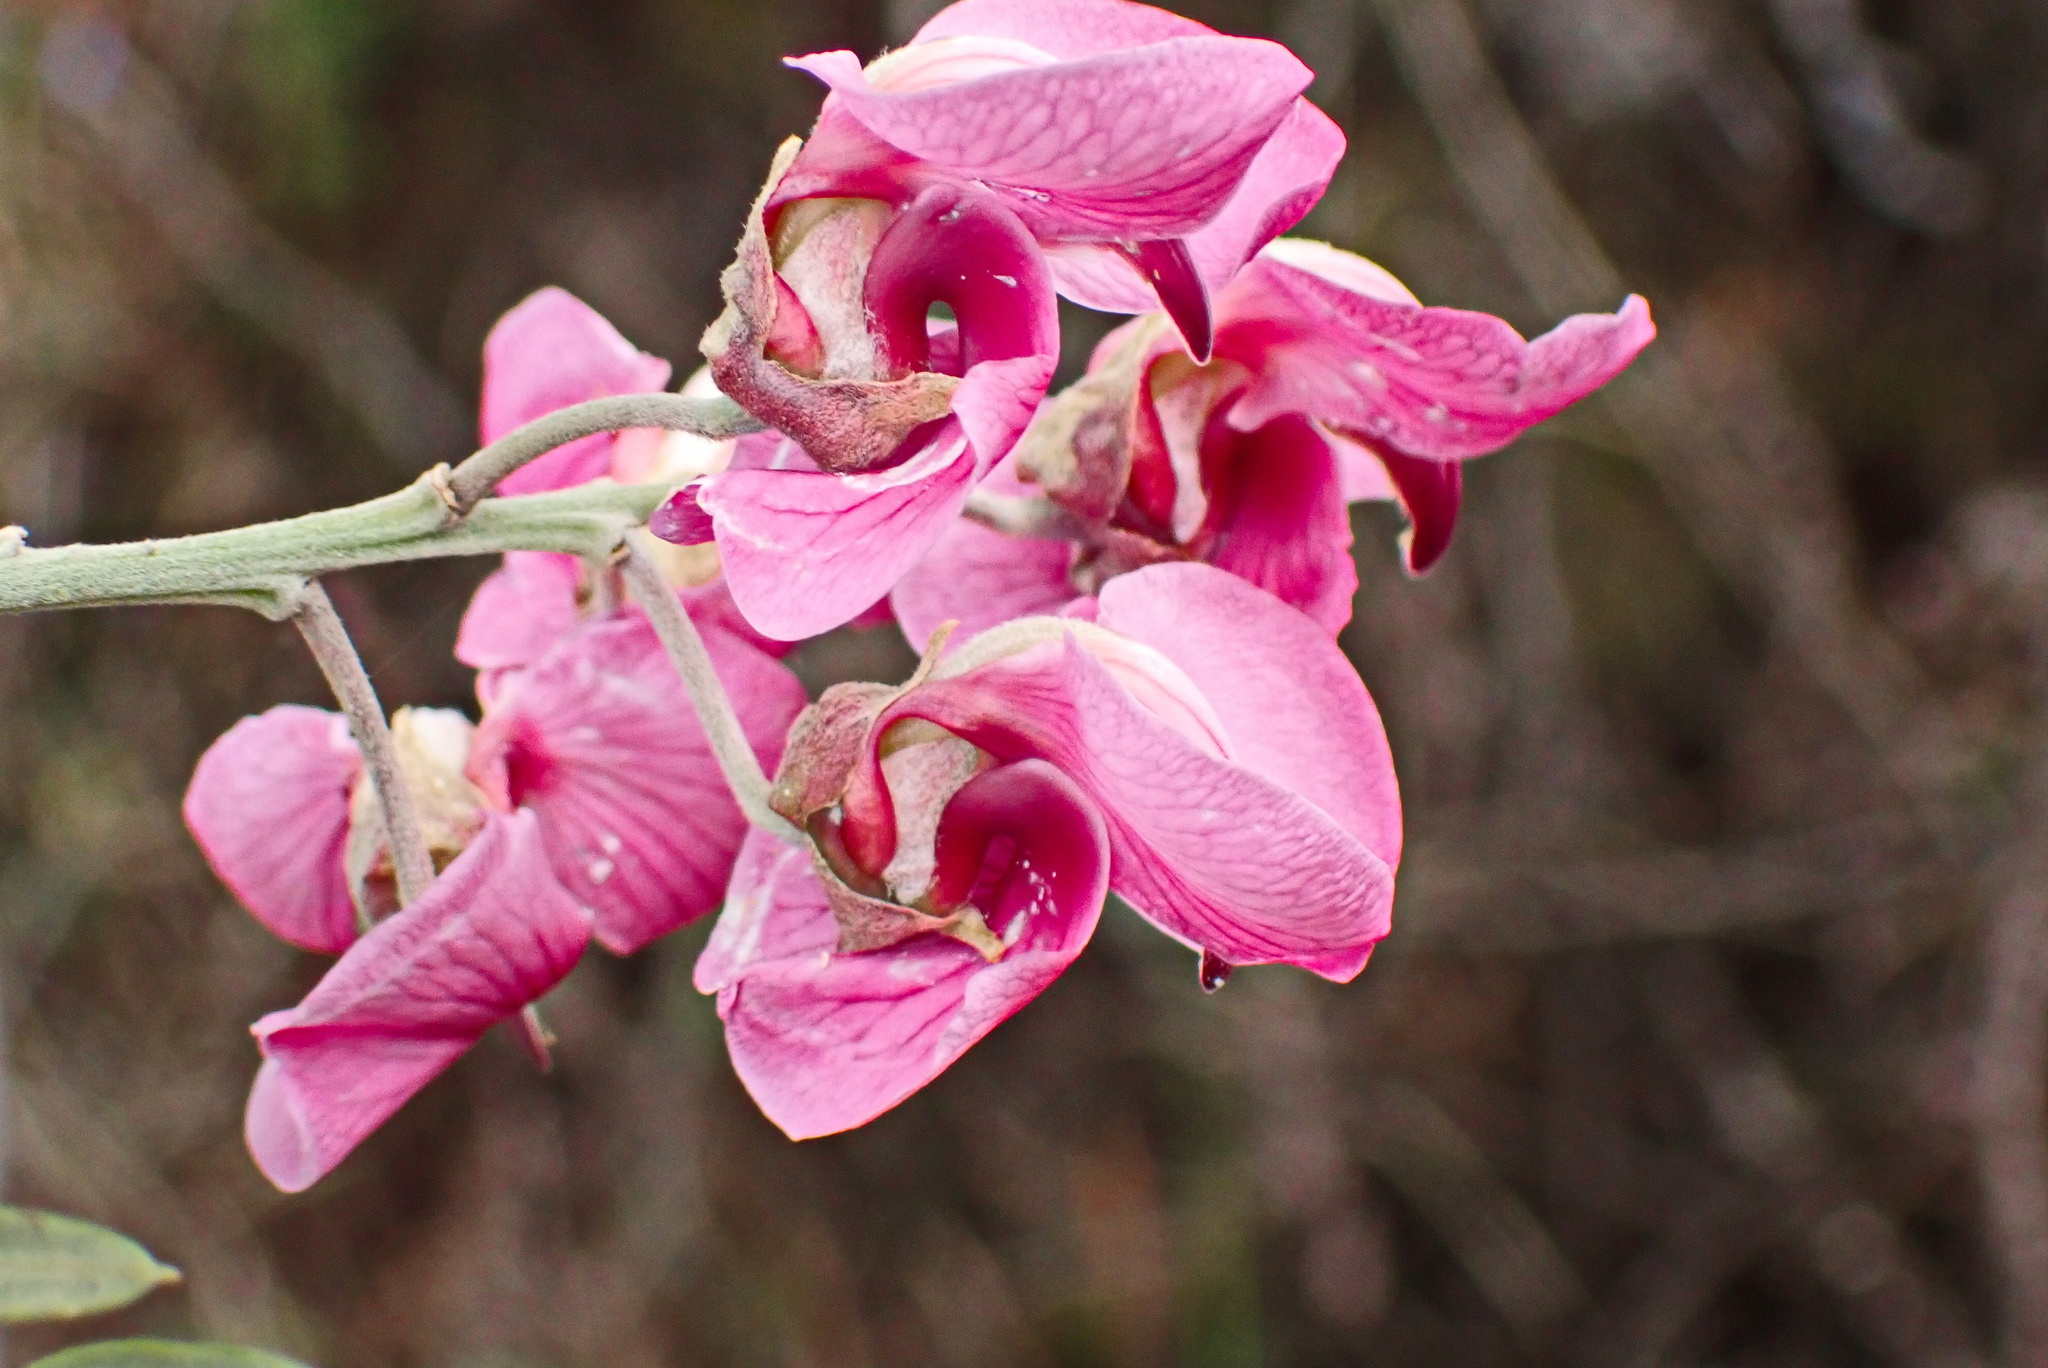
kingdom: Plantae
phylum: Tracheophyta
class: Magnoliopsida
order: Fabales
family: Fabaceae
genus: Virgilia
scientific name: Virgilia divaricata
